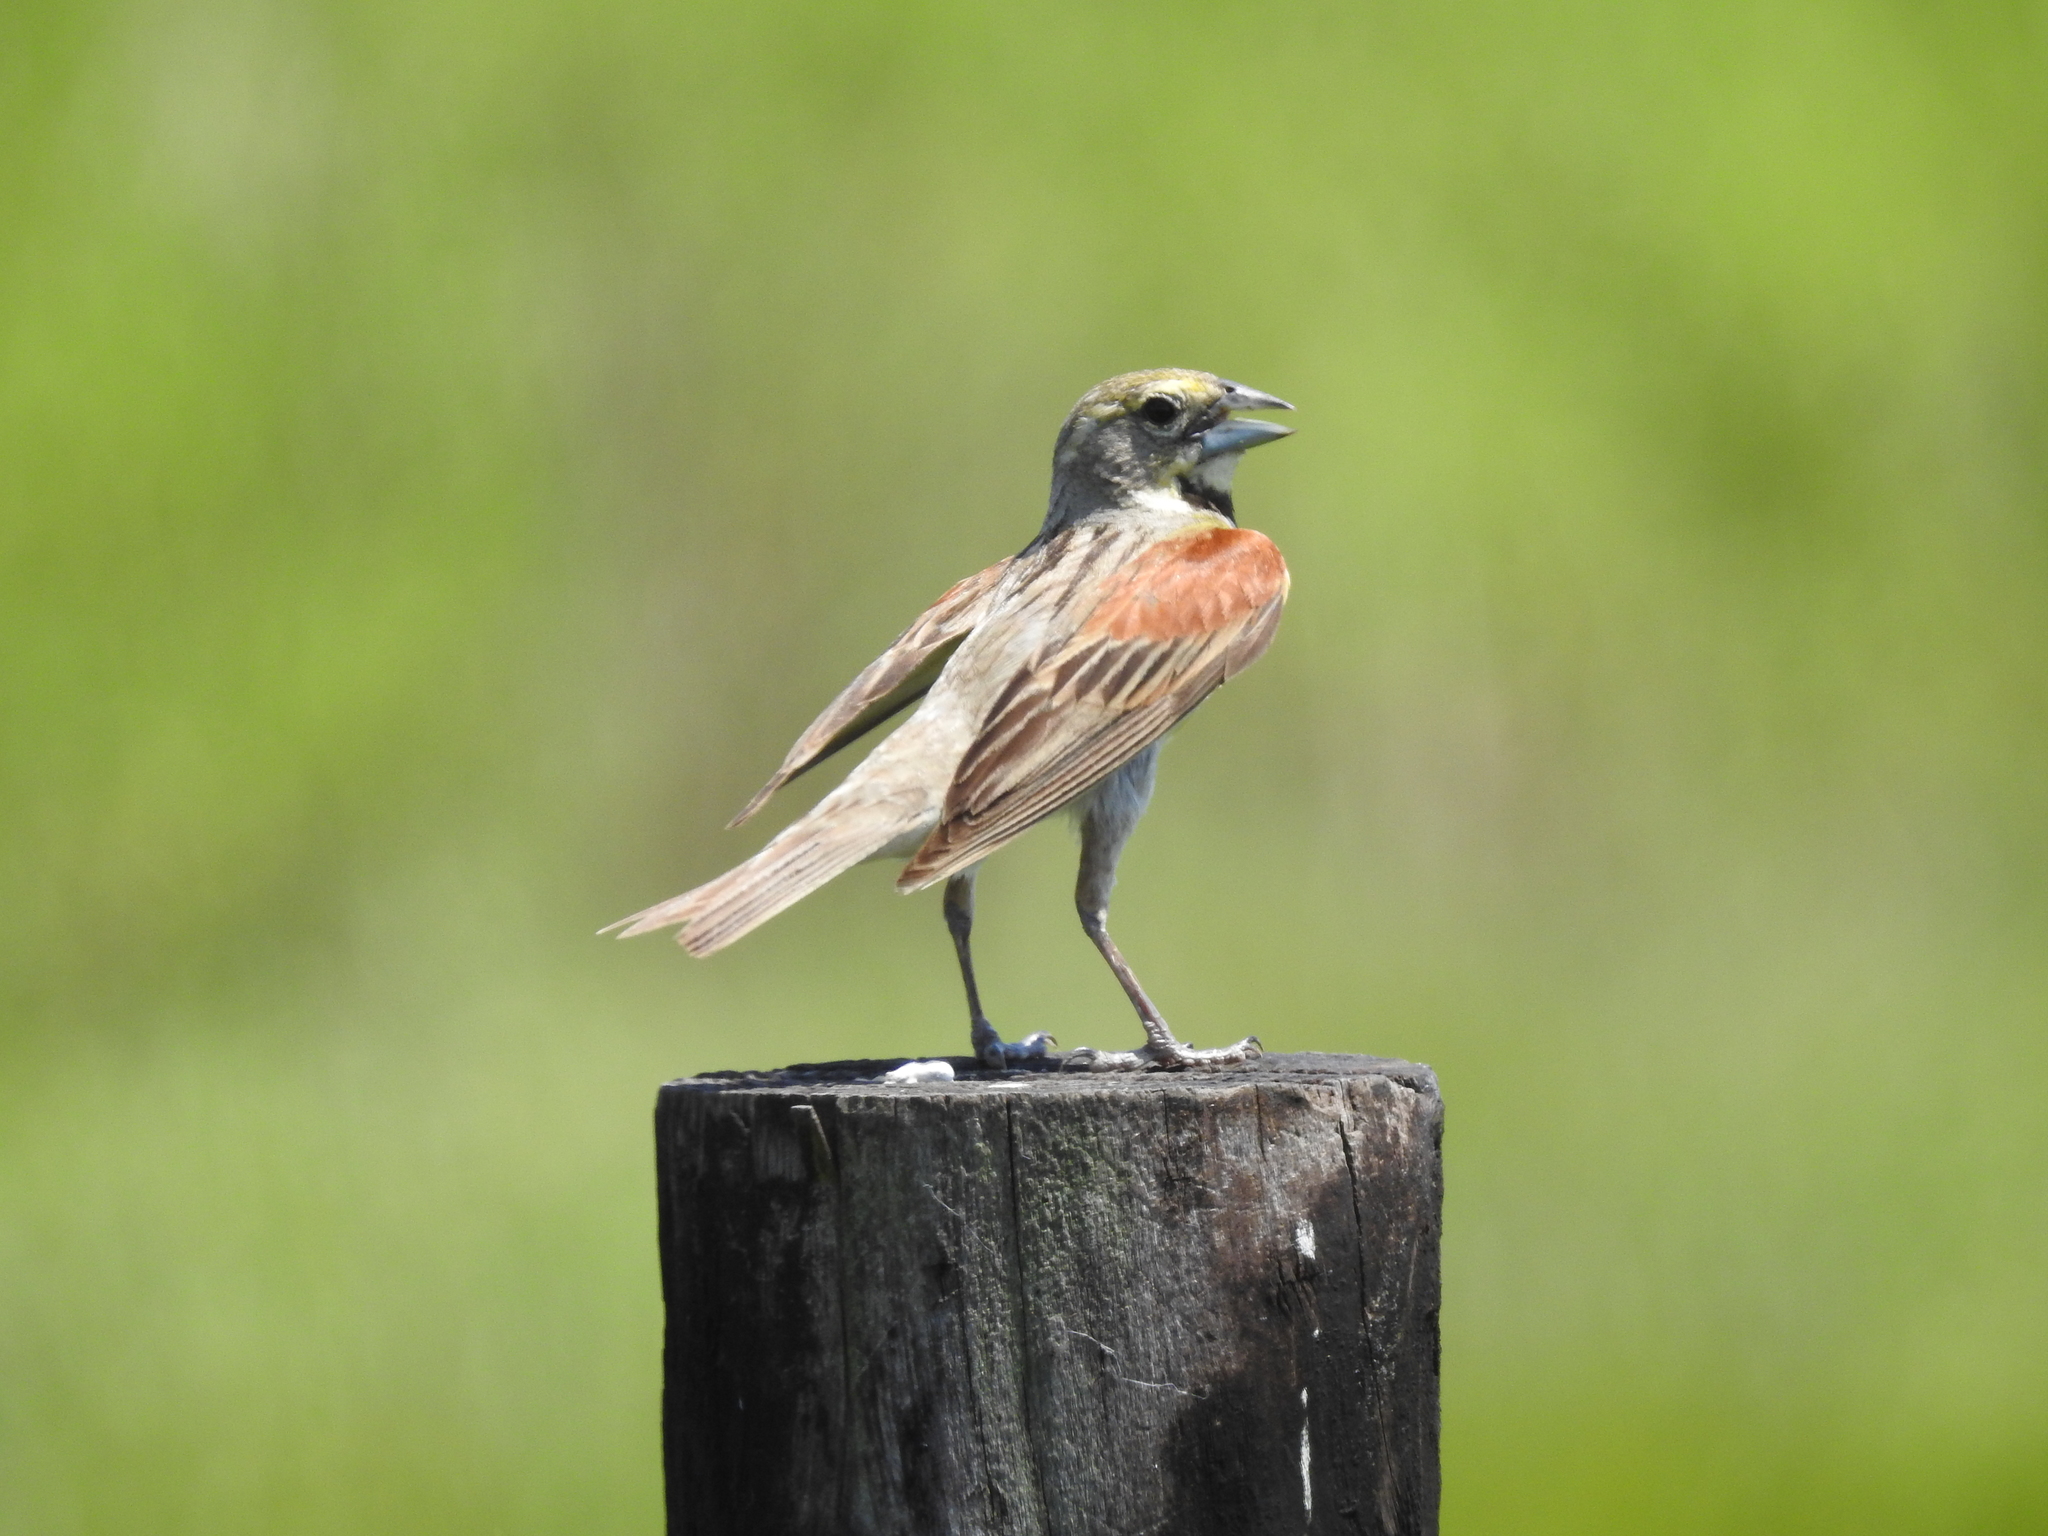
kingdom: Animalia
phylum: Chordata
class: Aves
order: Passeriformes
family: Cardinalidae
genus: Spiza
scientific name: Spiza americana
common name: Dickcissel
